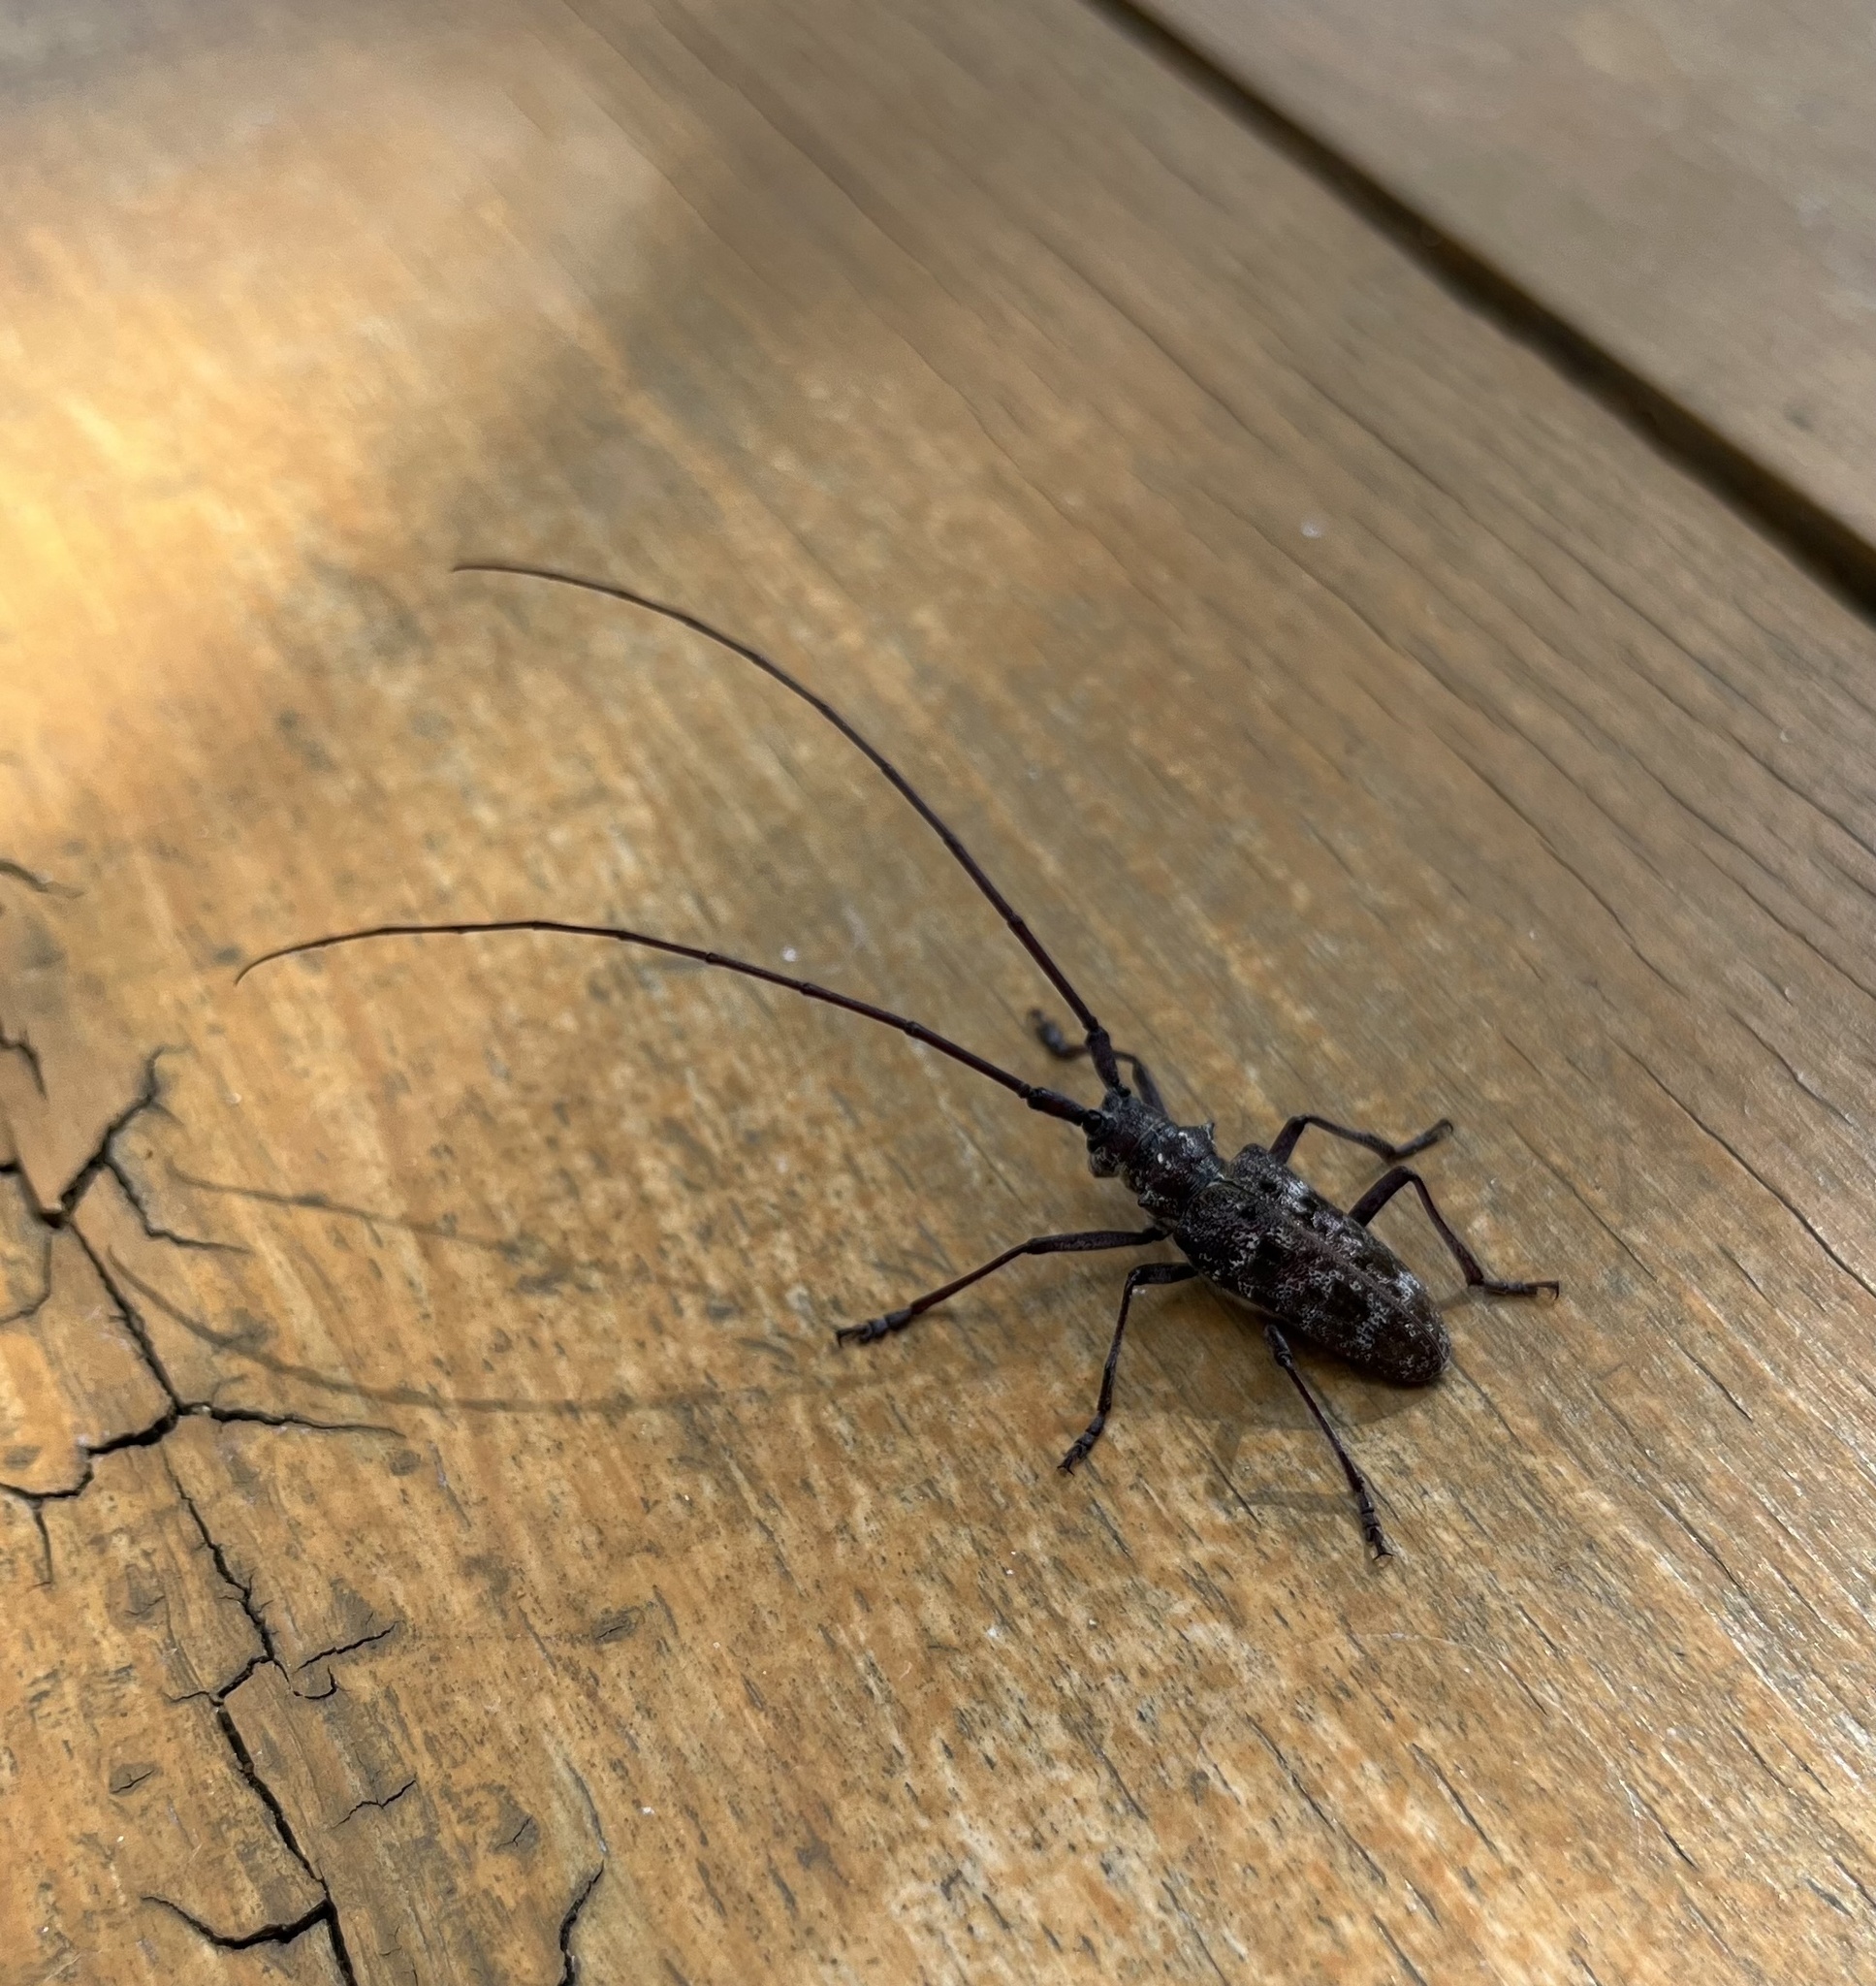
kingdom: Animalia
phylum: Arthropoda
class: Insecta
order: Coleoptera
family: Cerambycidae
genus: Monochamus
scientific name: Monochamus obtusus
